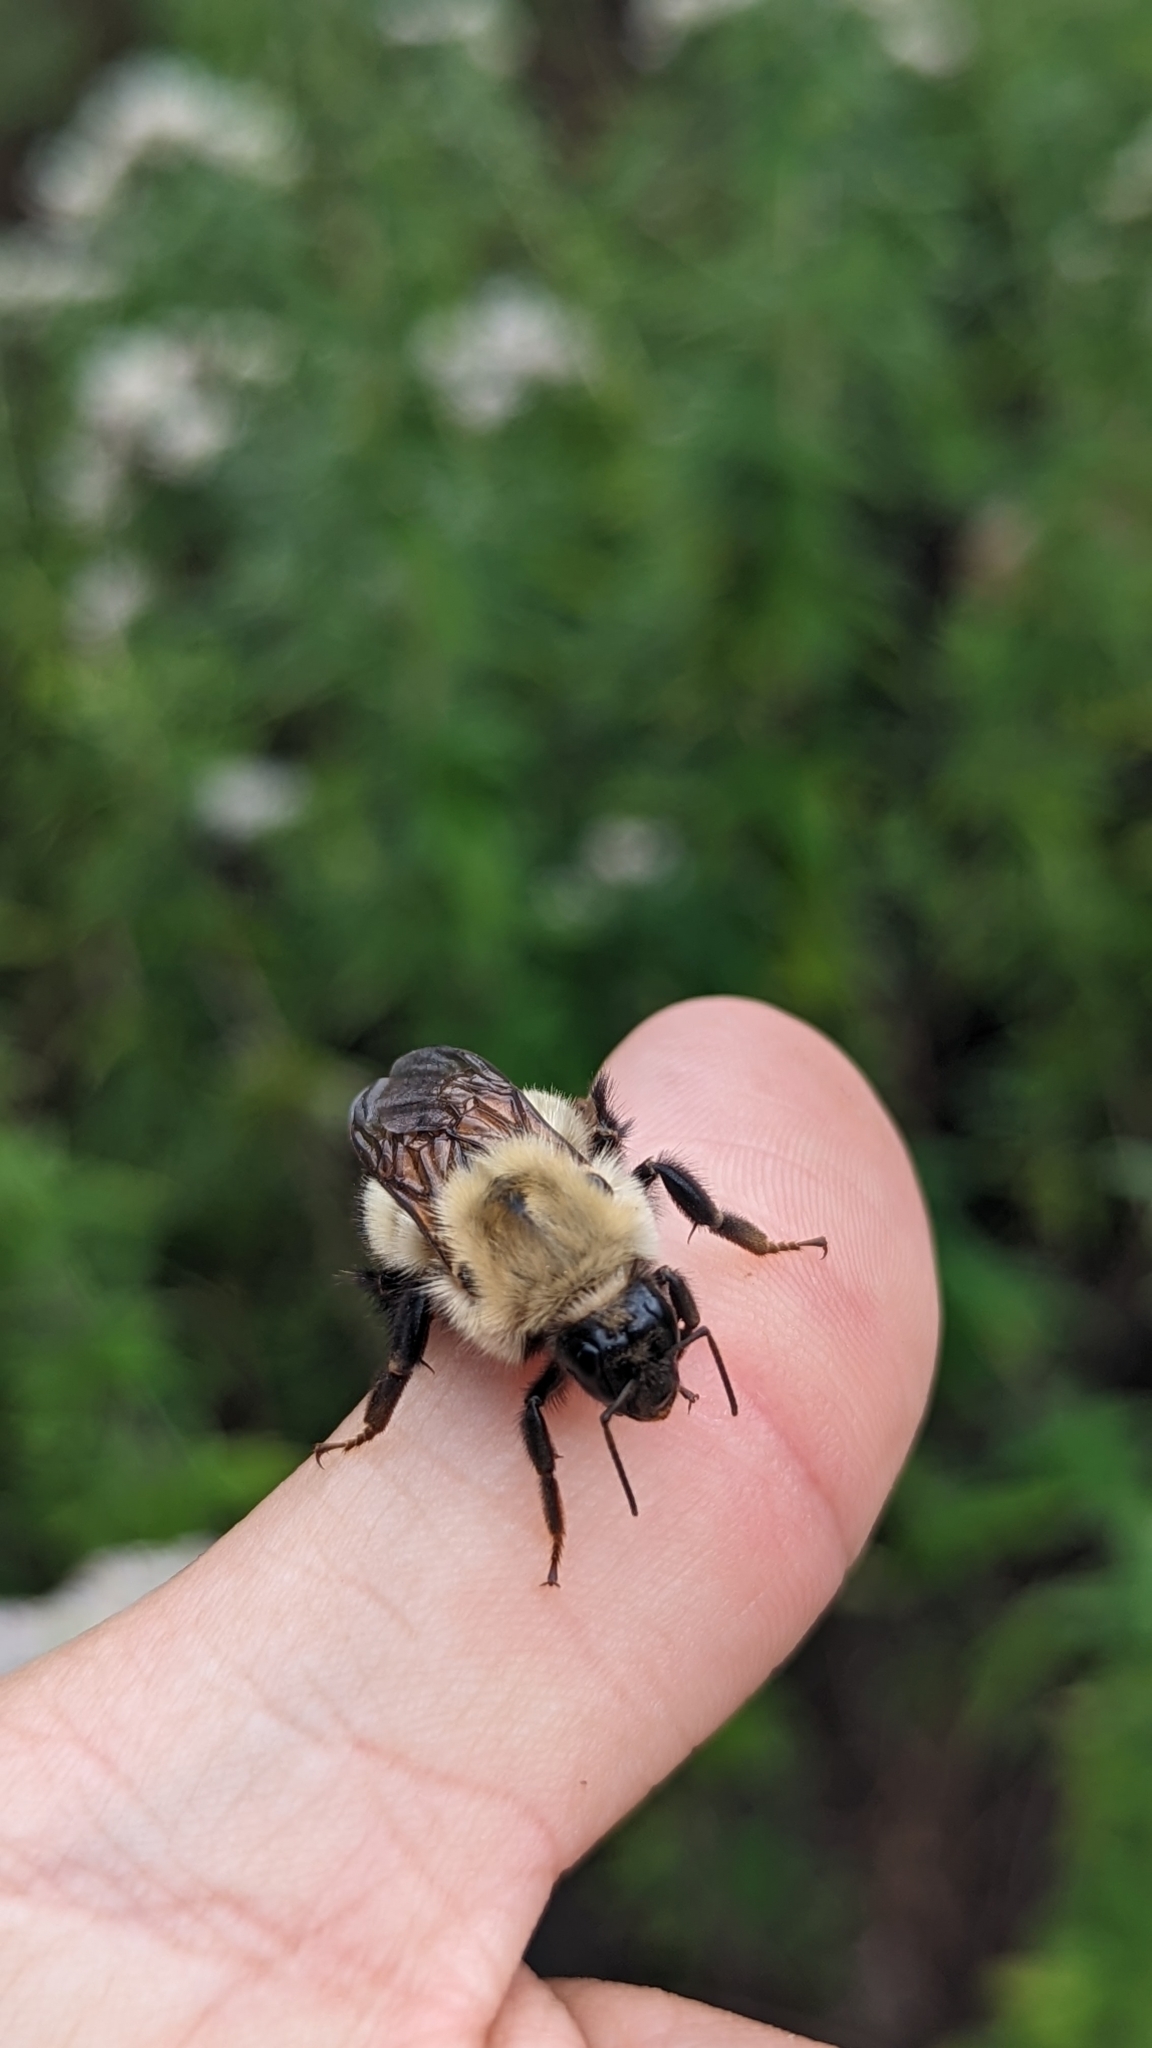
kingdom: Animalia
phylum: Arthropoda
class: Insecta
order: Hymenoptera
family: Apidae
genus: Bombus
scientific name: Bombus perplexus
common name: Confusing bumble bee
